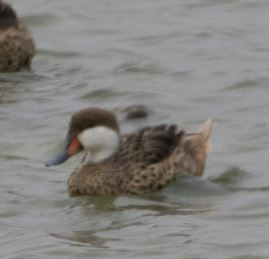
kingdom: Animalia
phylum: Chordata
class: Aves
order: Anseriformes
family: Anatidae
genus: Anas
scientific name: Anas bahamensis
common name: White-cheeked pintail
